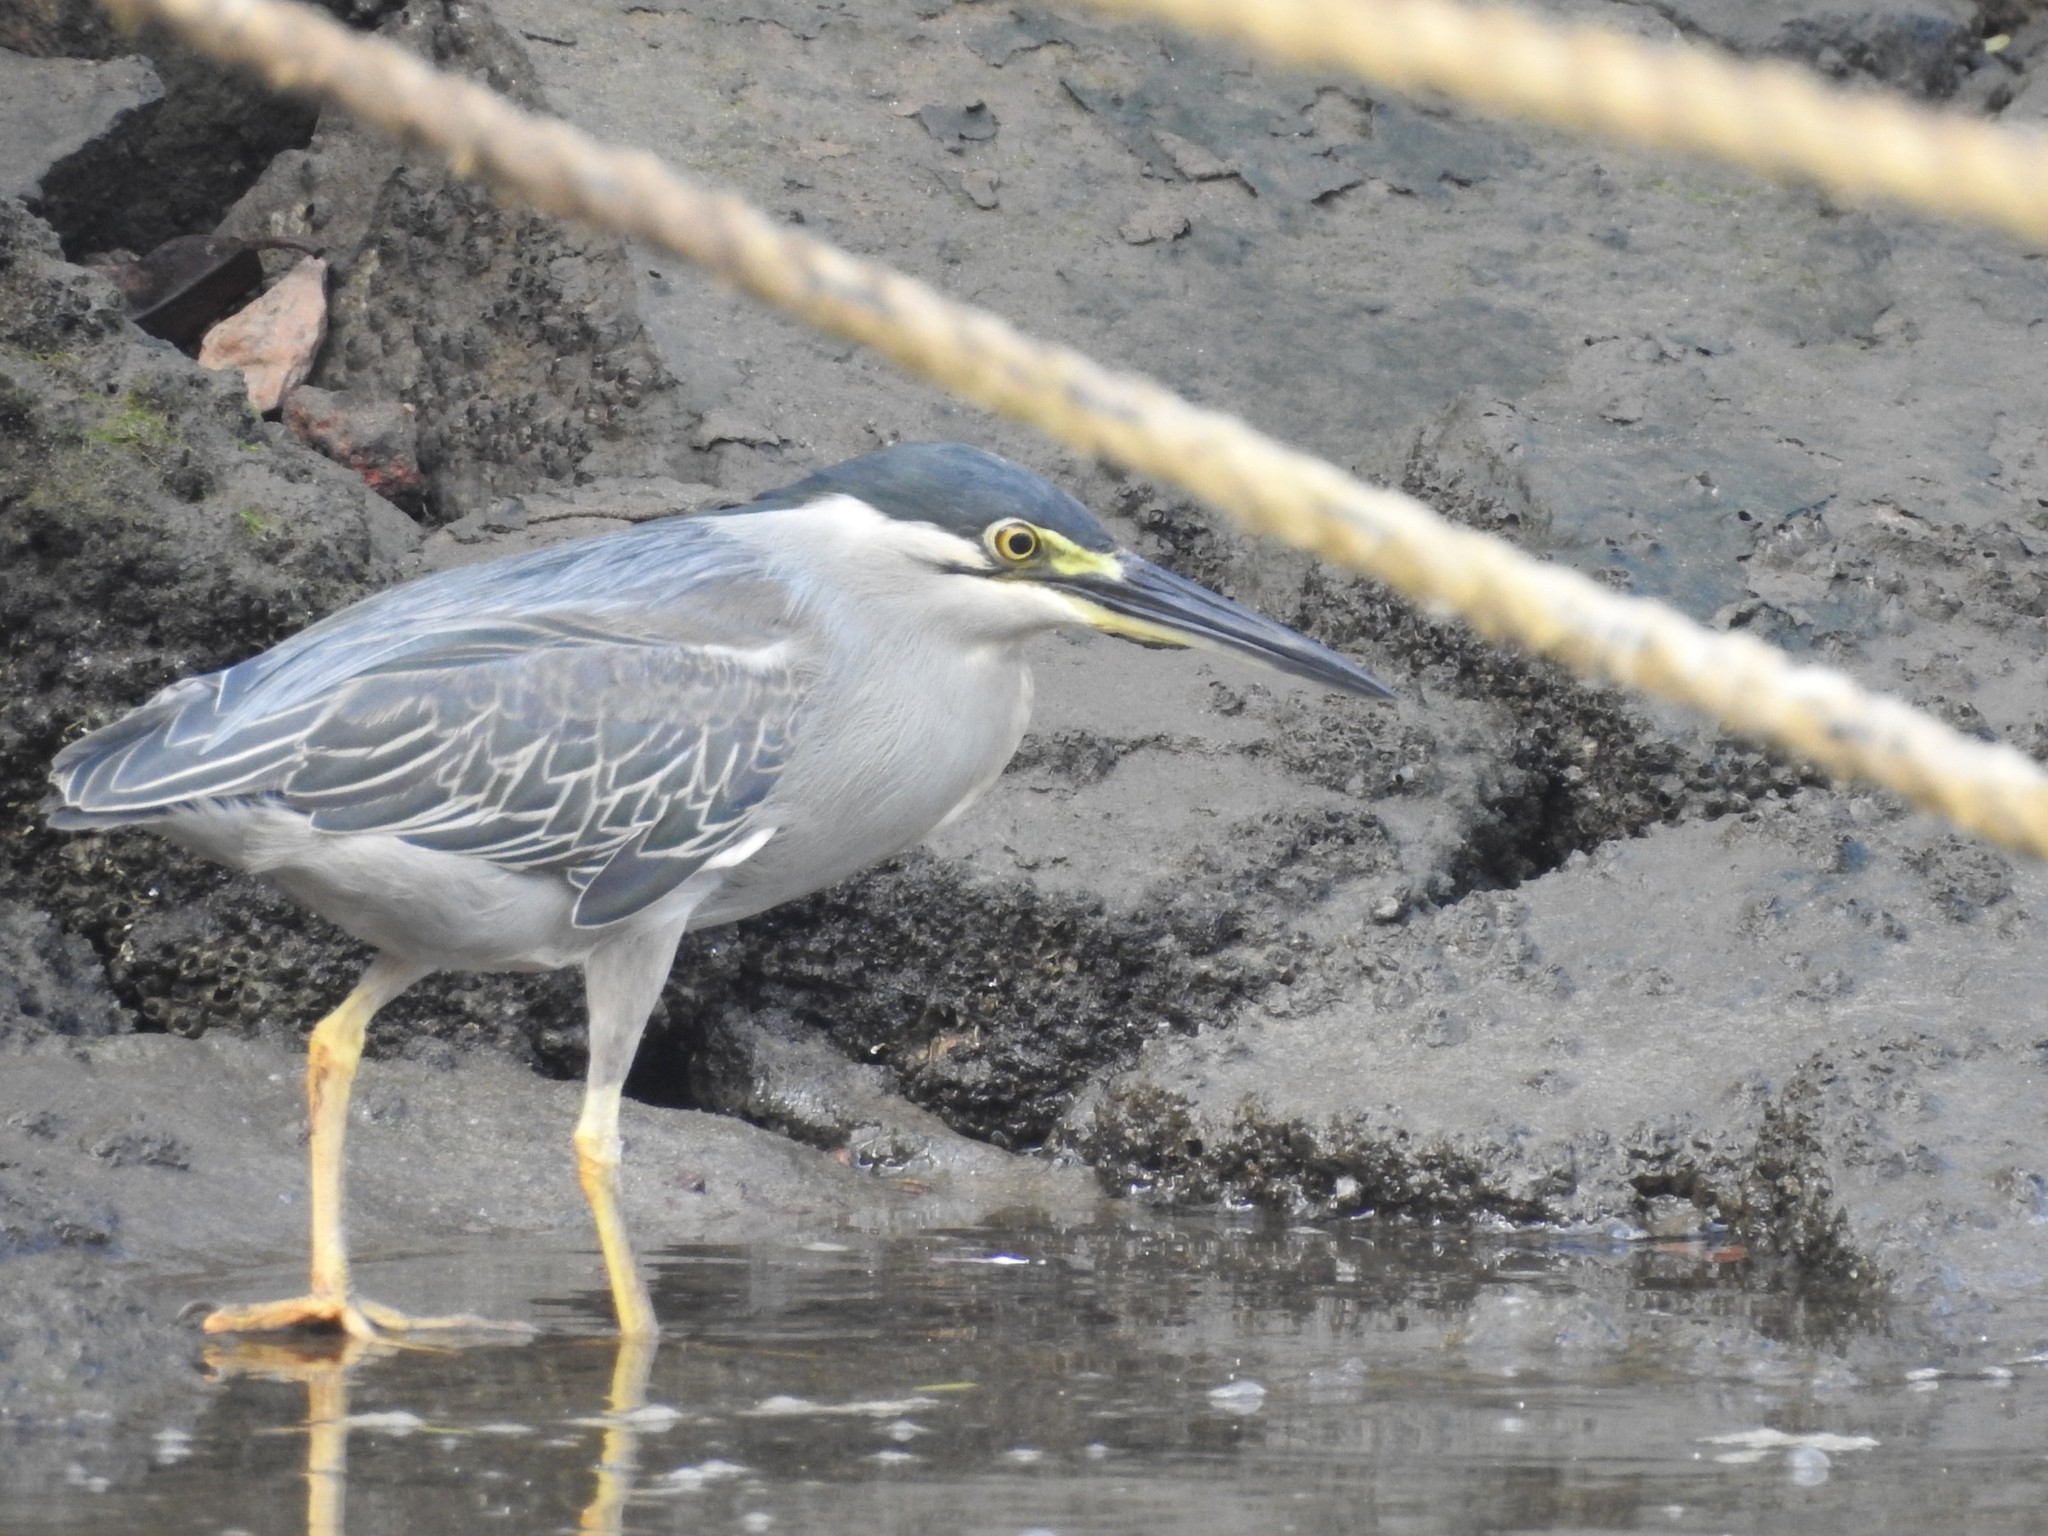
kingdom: Animalia
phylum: Chordata
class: Aves
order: Pelecaniformes
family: Ardeidae
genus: Butorides
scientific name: Butorides striata
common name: Striated heron
